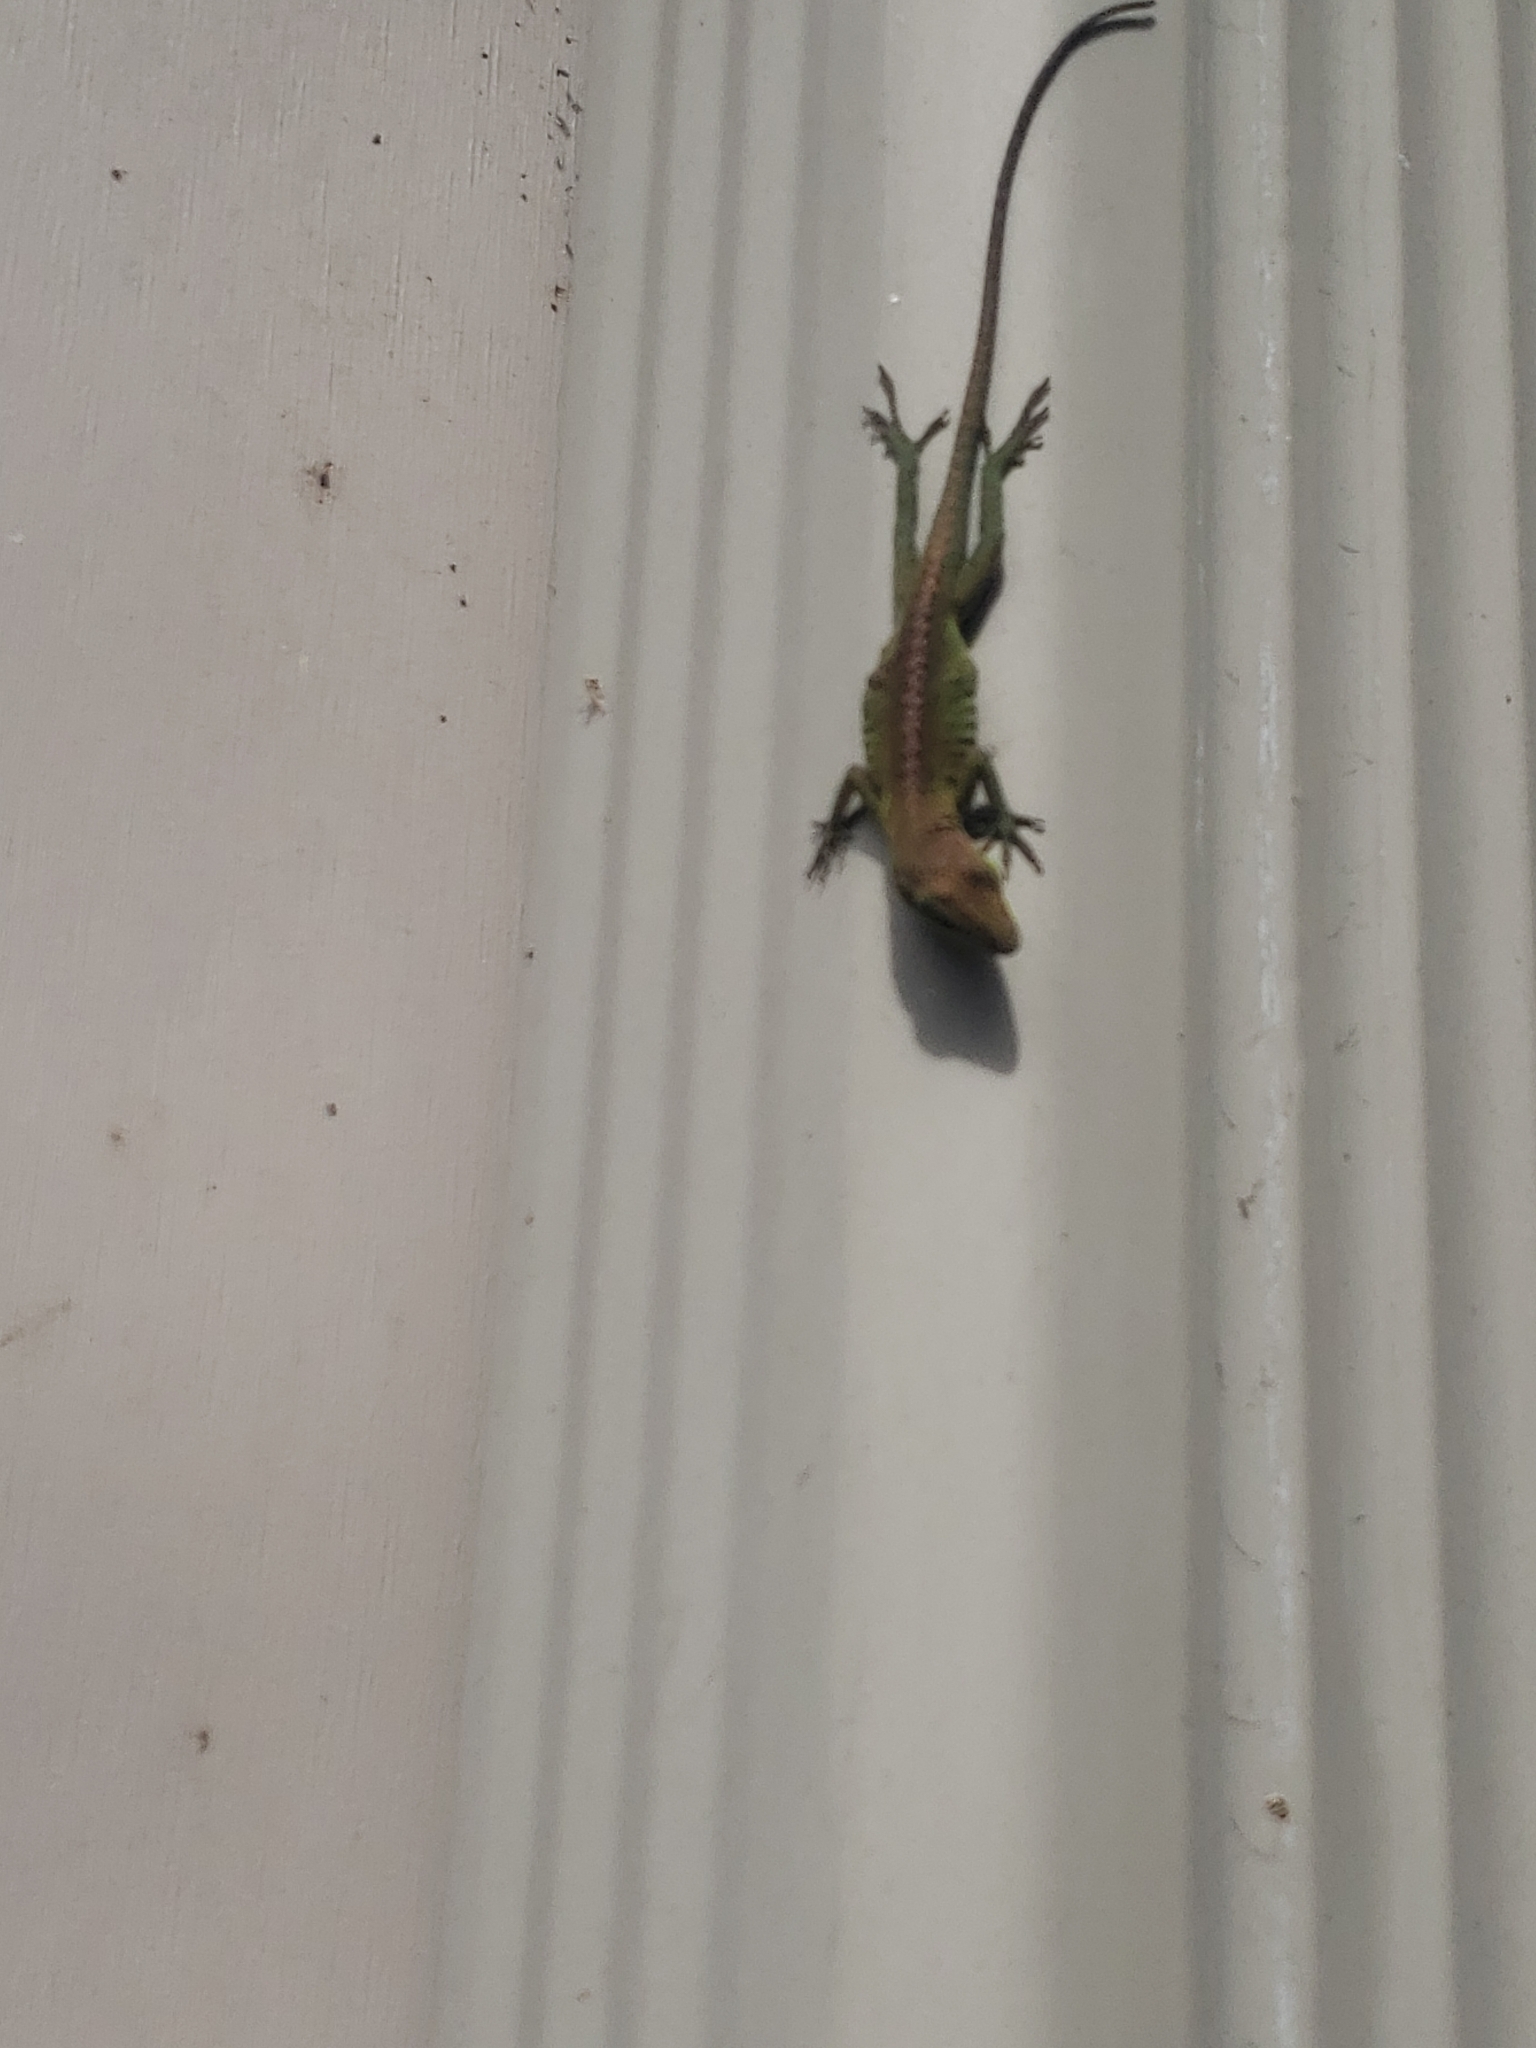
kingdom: Animalia
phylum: Chordata
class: Squamata
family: Dactyloidae
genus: Anolis
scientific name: Anolis carolinensis
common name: Green anole
